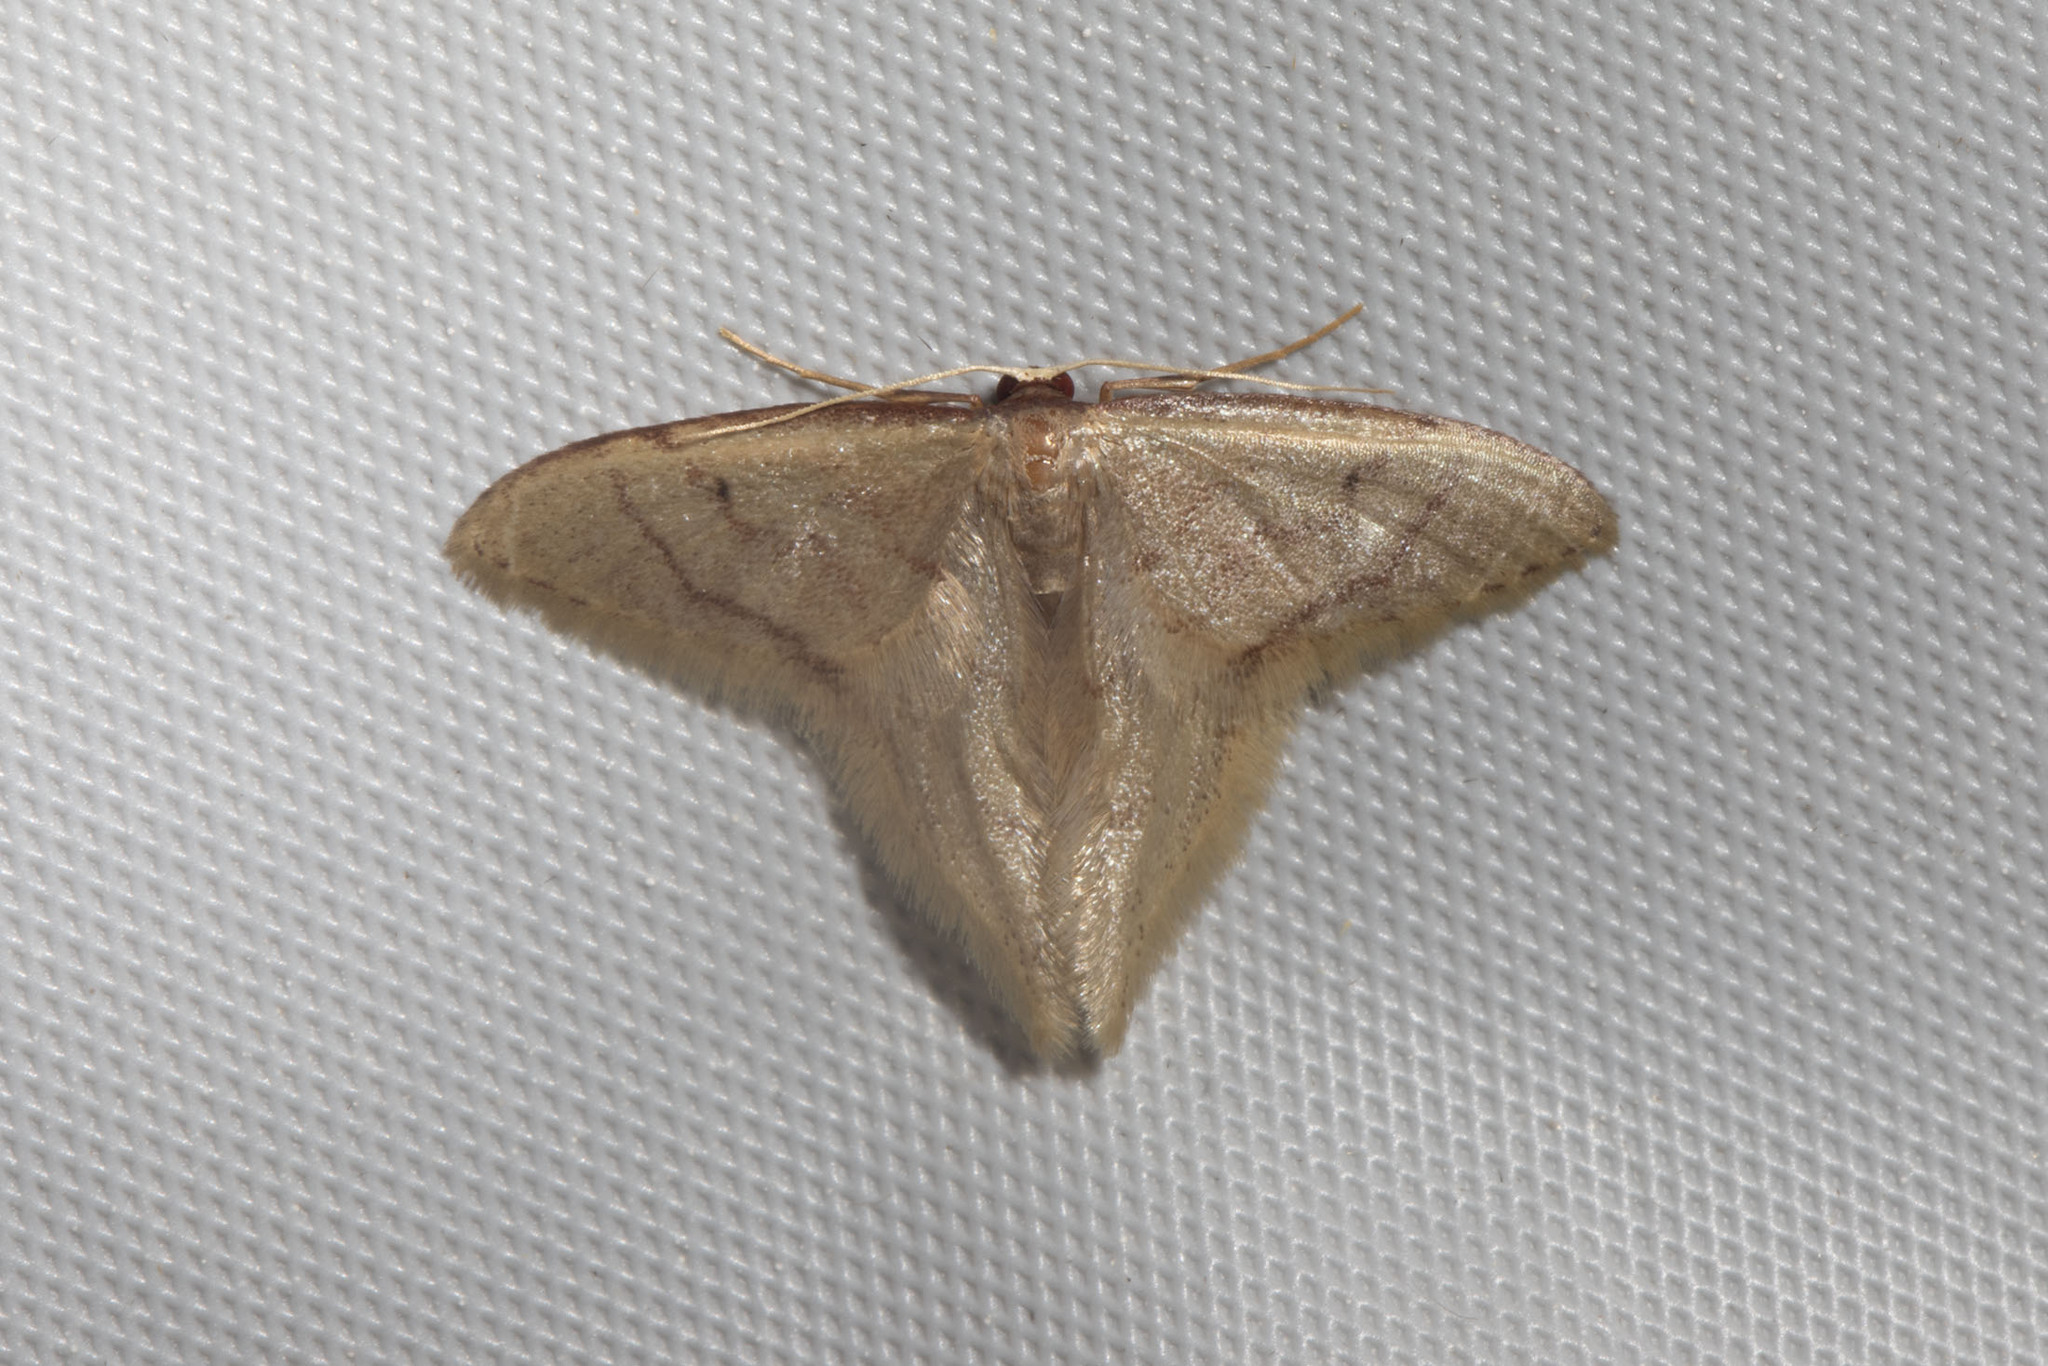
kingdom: Animalia
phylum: Arthropoda
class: Insecta
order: Lepidoptera
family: Geometridae
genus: Idaea
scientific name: Idaea speciosa
